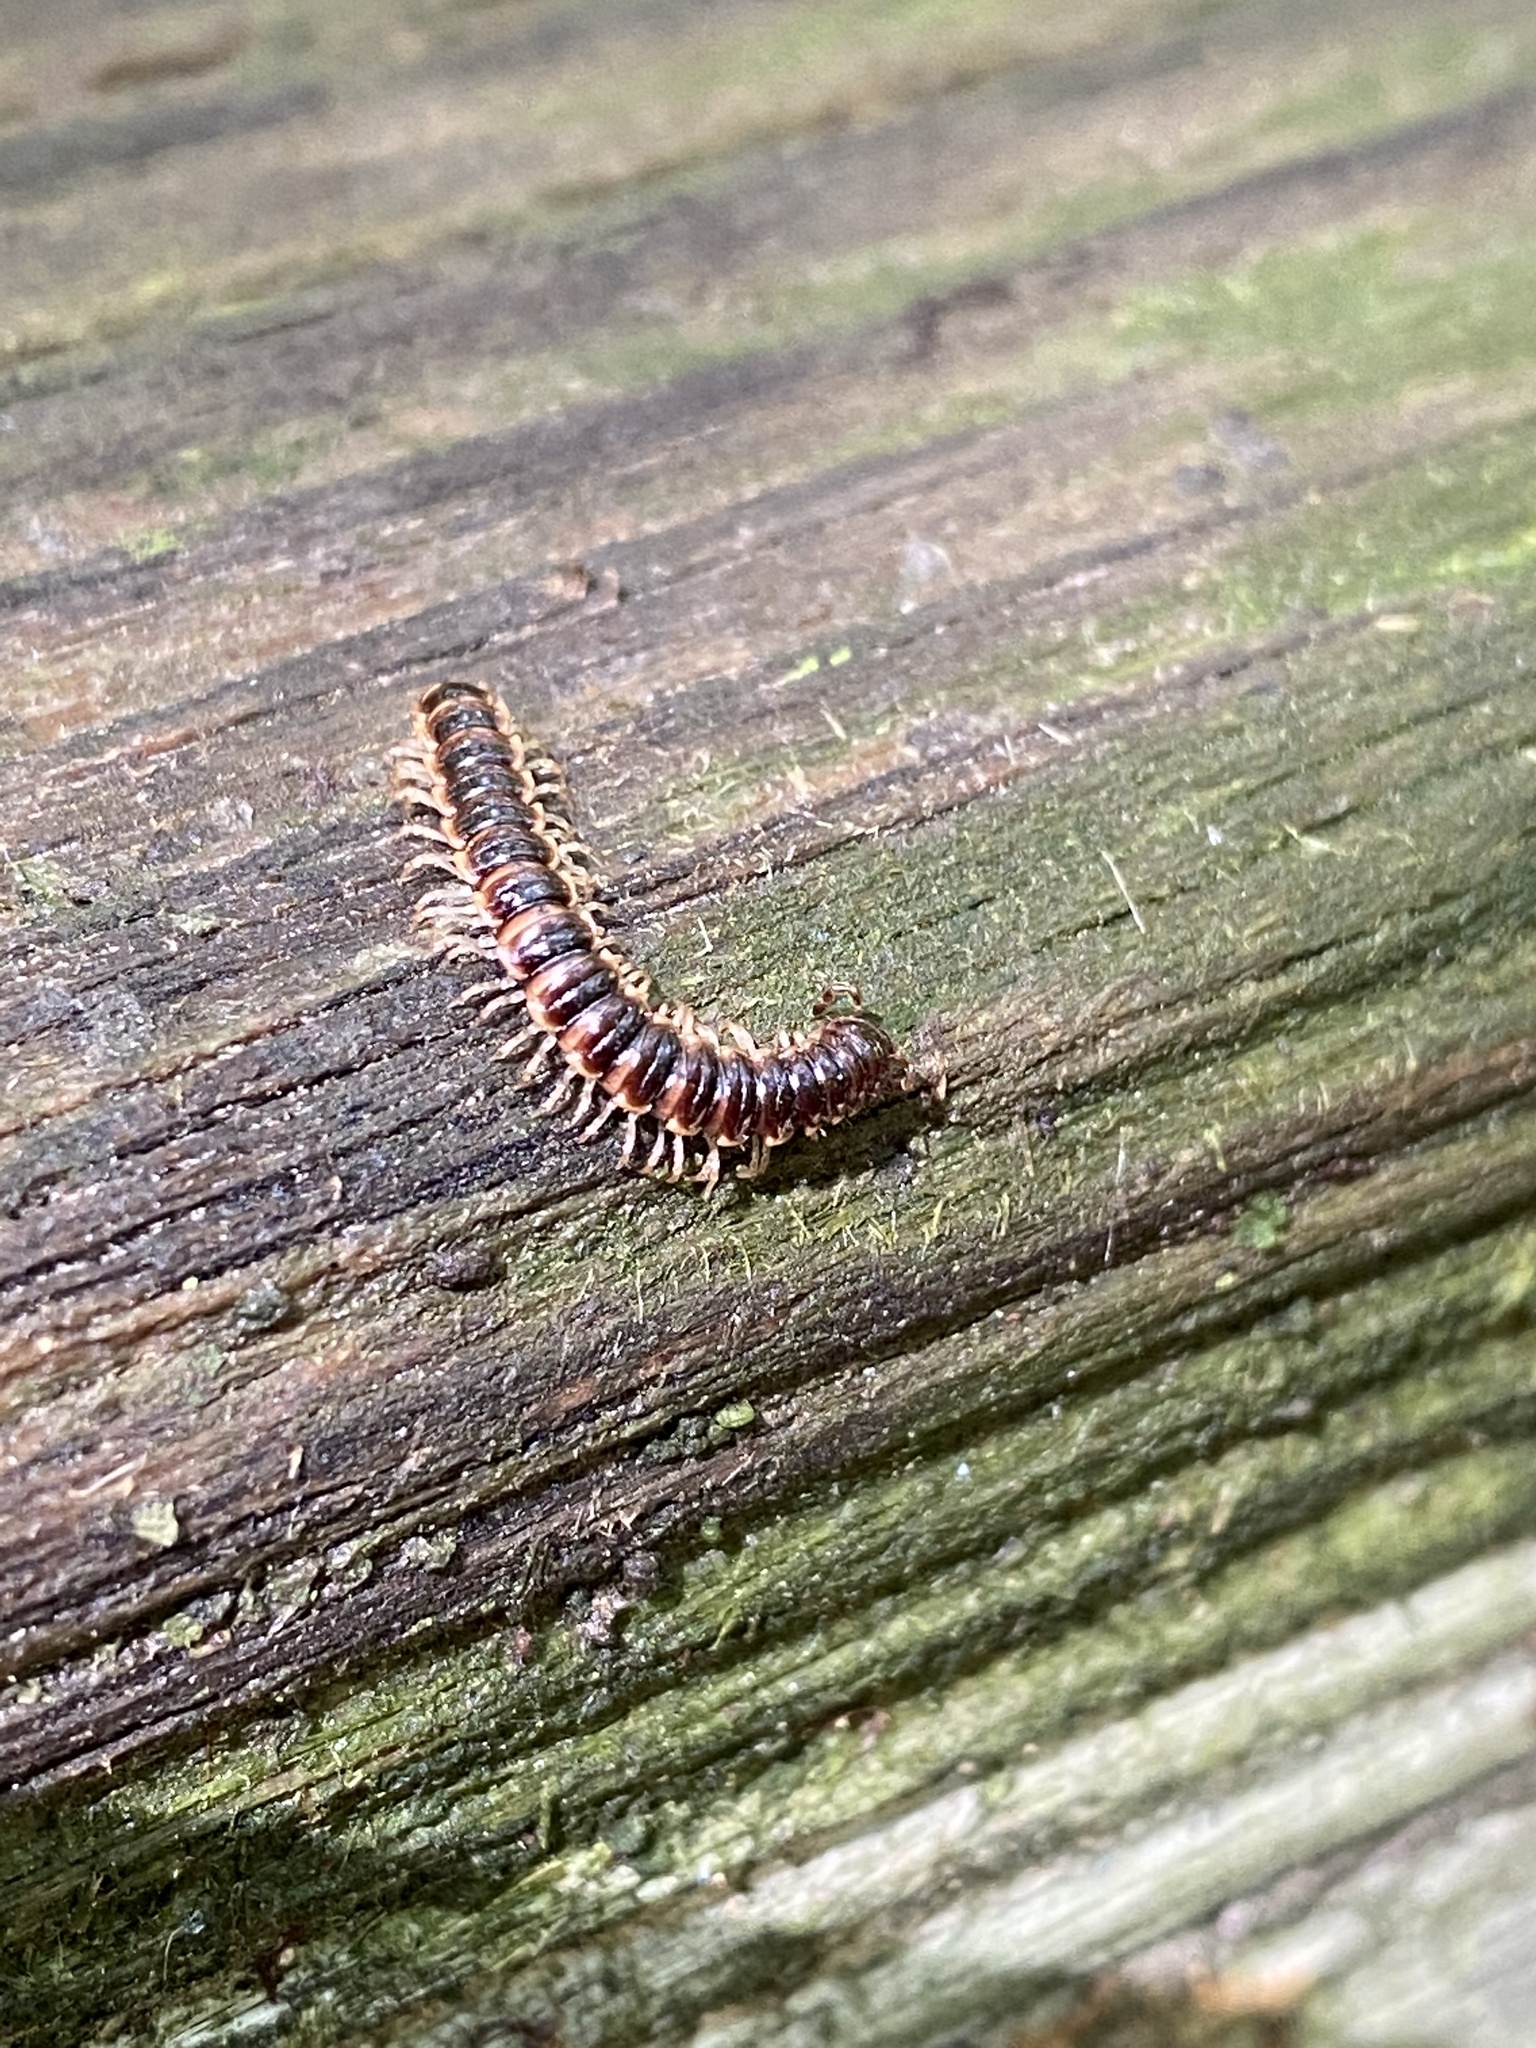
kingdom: Animalia
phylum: Arthropoda
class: Diplopoda
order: Polydesmida
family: Paradoxosomatidae
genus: Oxidus
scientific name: Oxidus gracilis
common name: Greenhouse millipede
